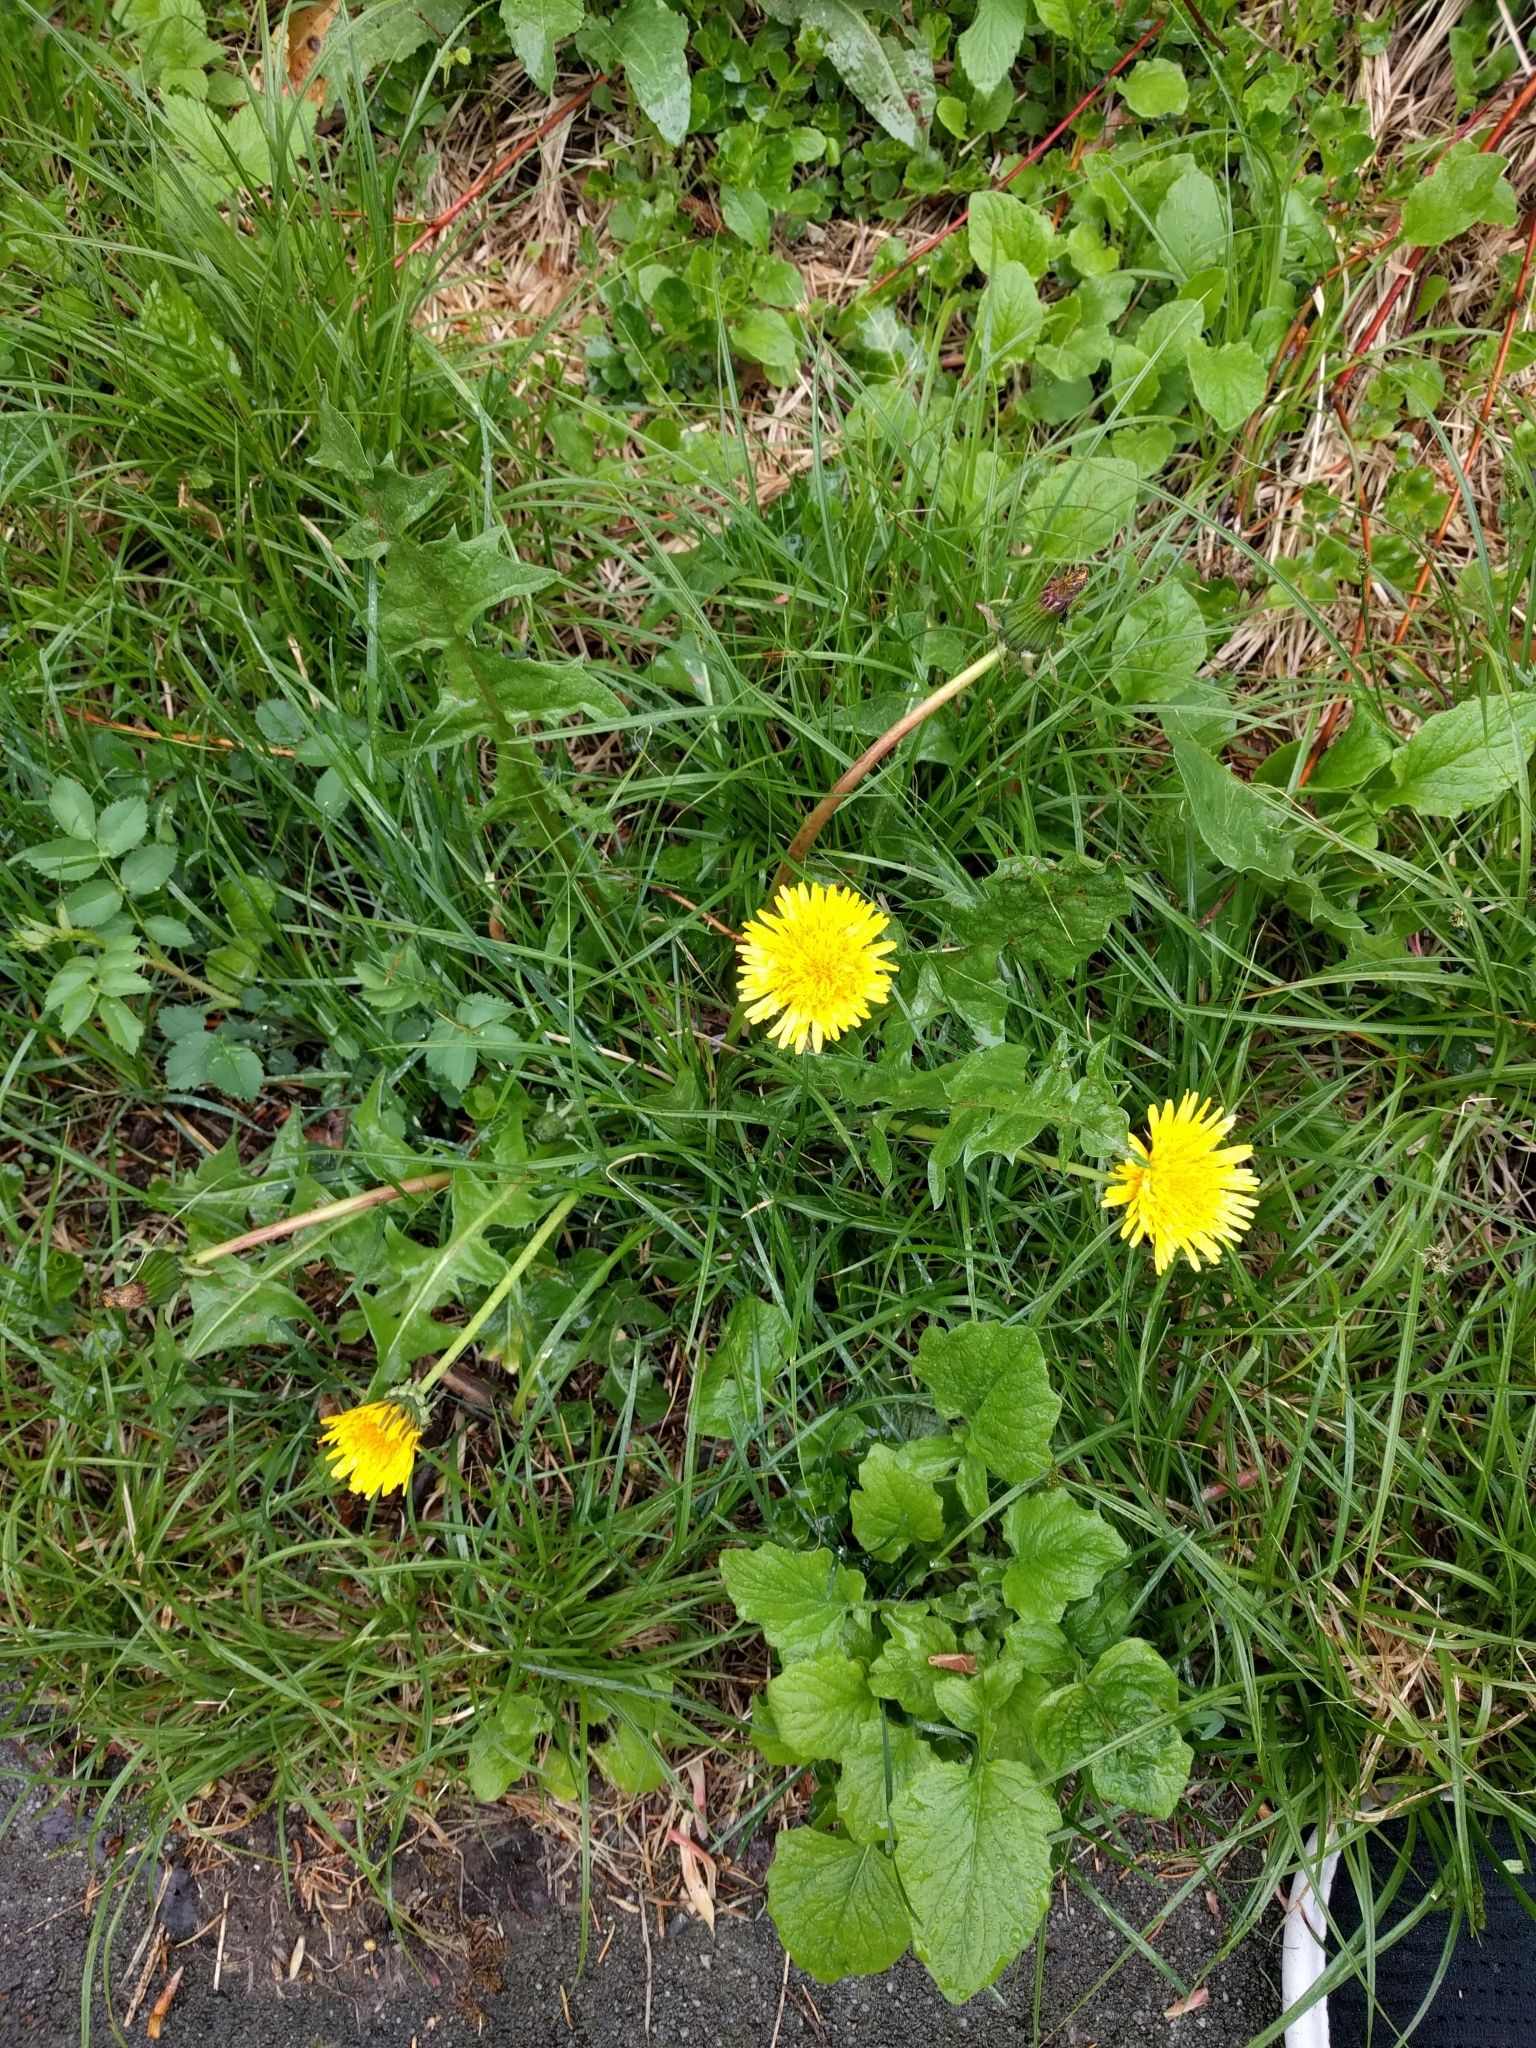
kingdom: Plantae
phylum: Tracheophyta
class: Magnoliopsida
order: Asterales
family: Asteraceae
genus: Taraxacum
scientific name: Taraxacum officinale
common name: Common dandelion
